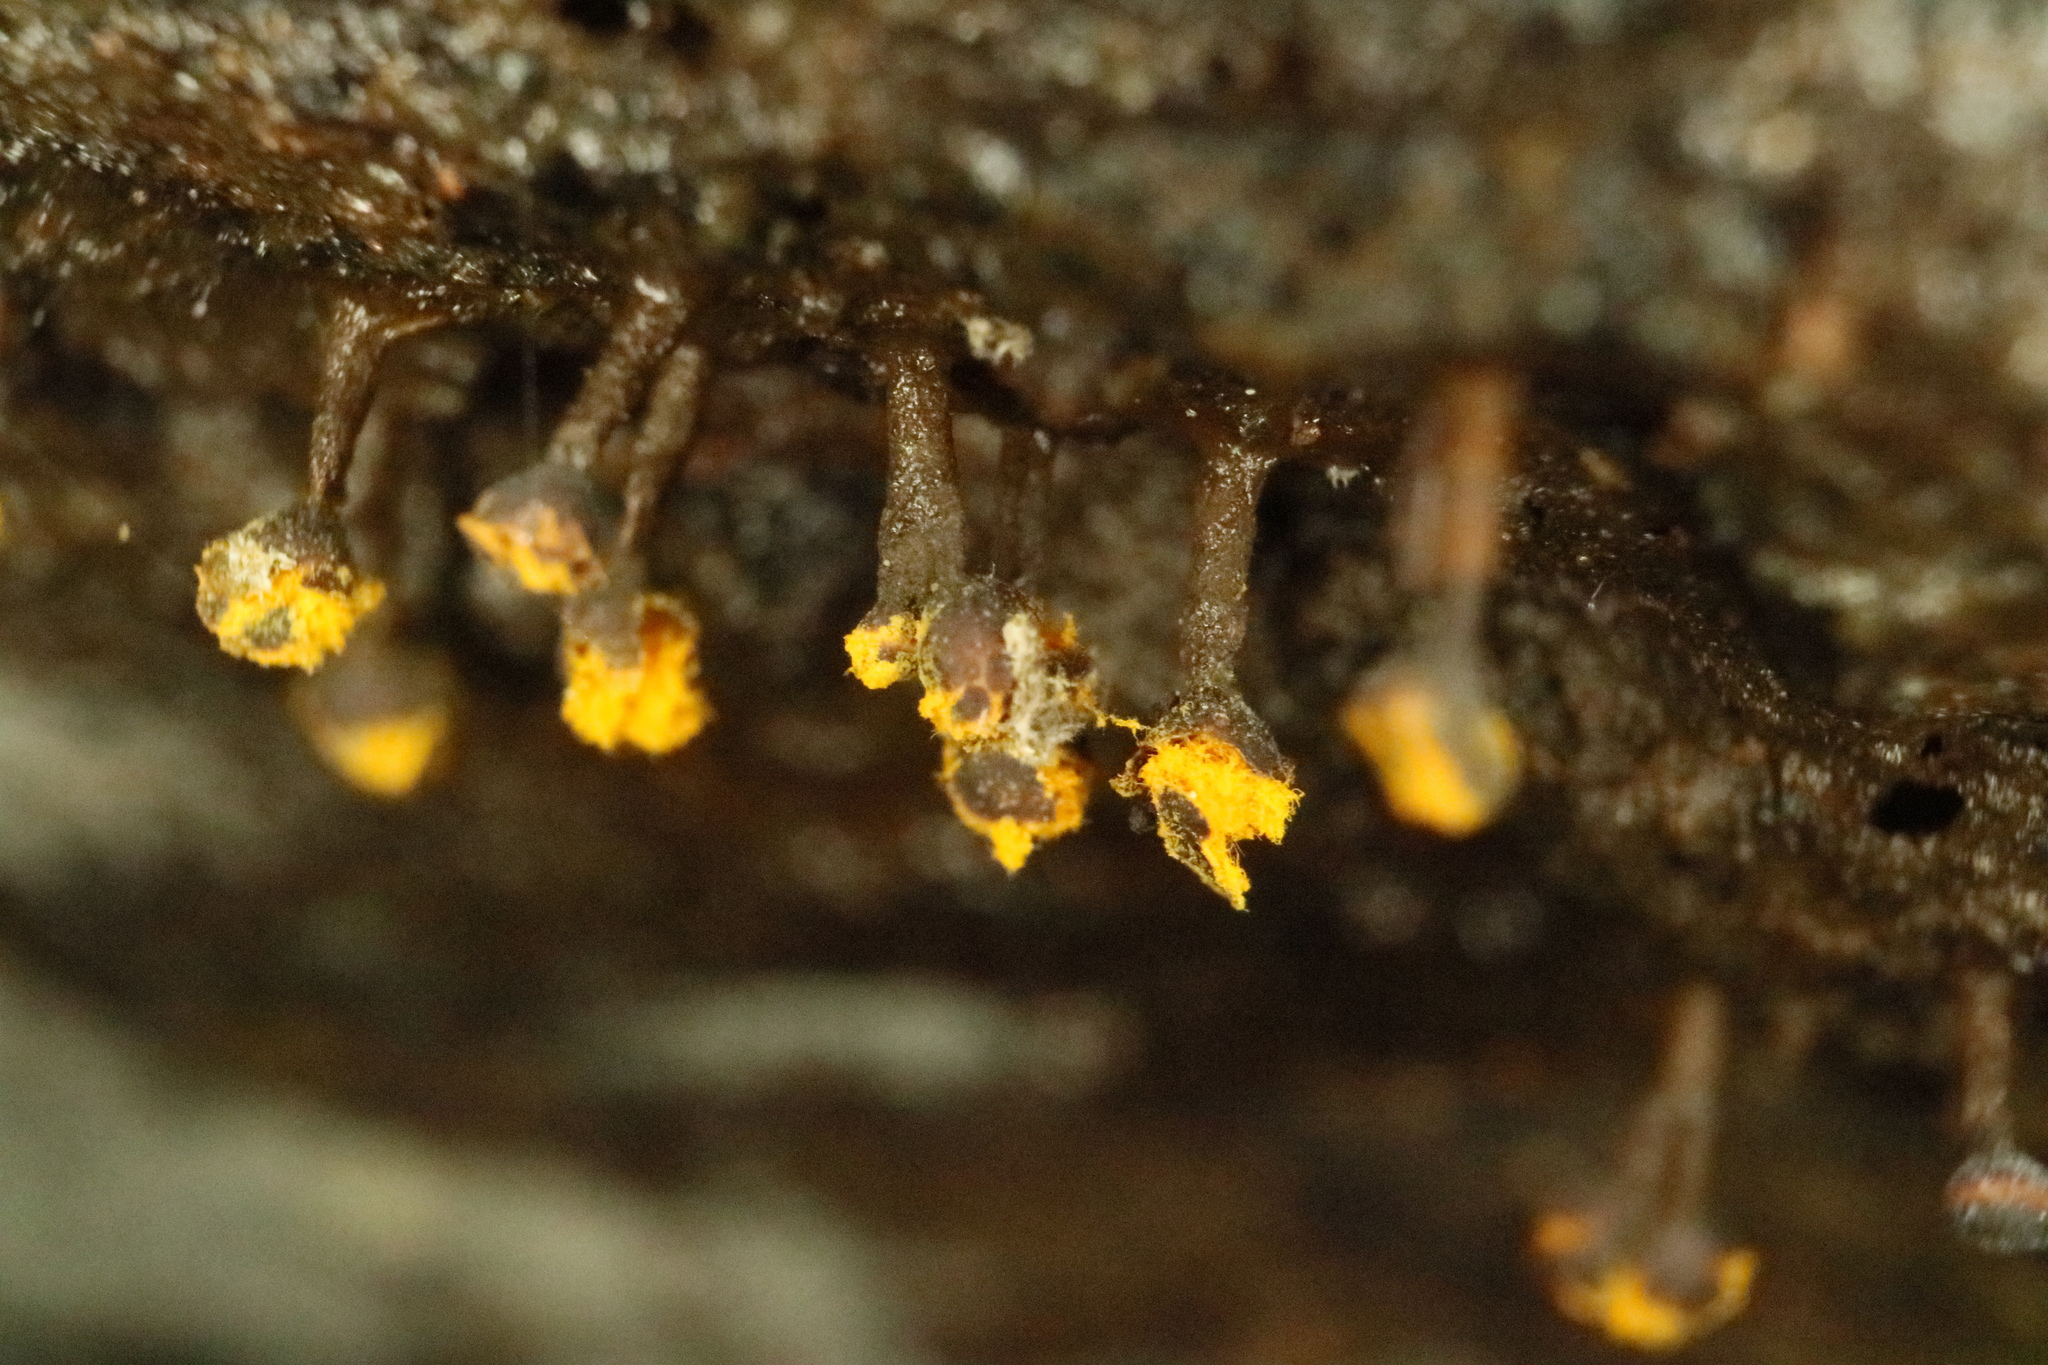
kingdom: Protozoa
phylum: Mycetozoa
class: Myxomycetes
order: Trichiales
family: Trichiaceae
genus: Trichia
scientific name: Trichia erecta
